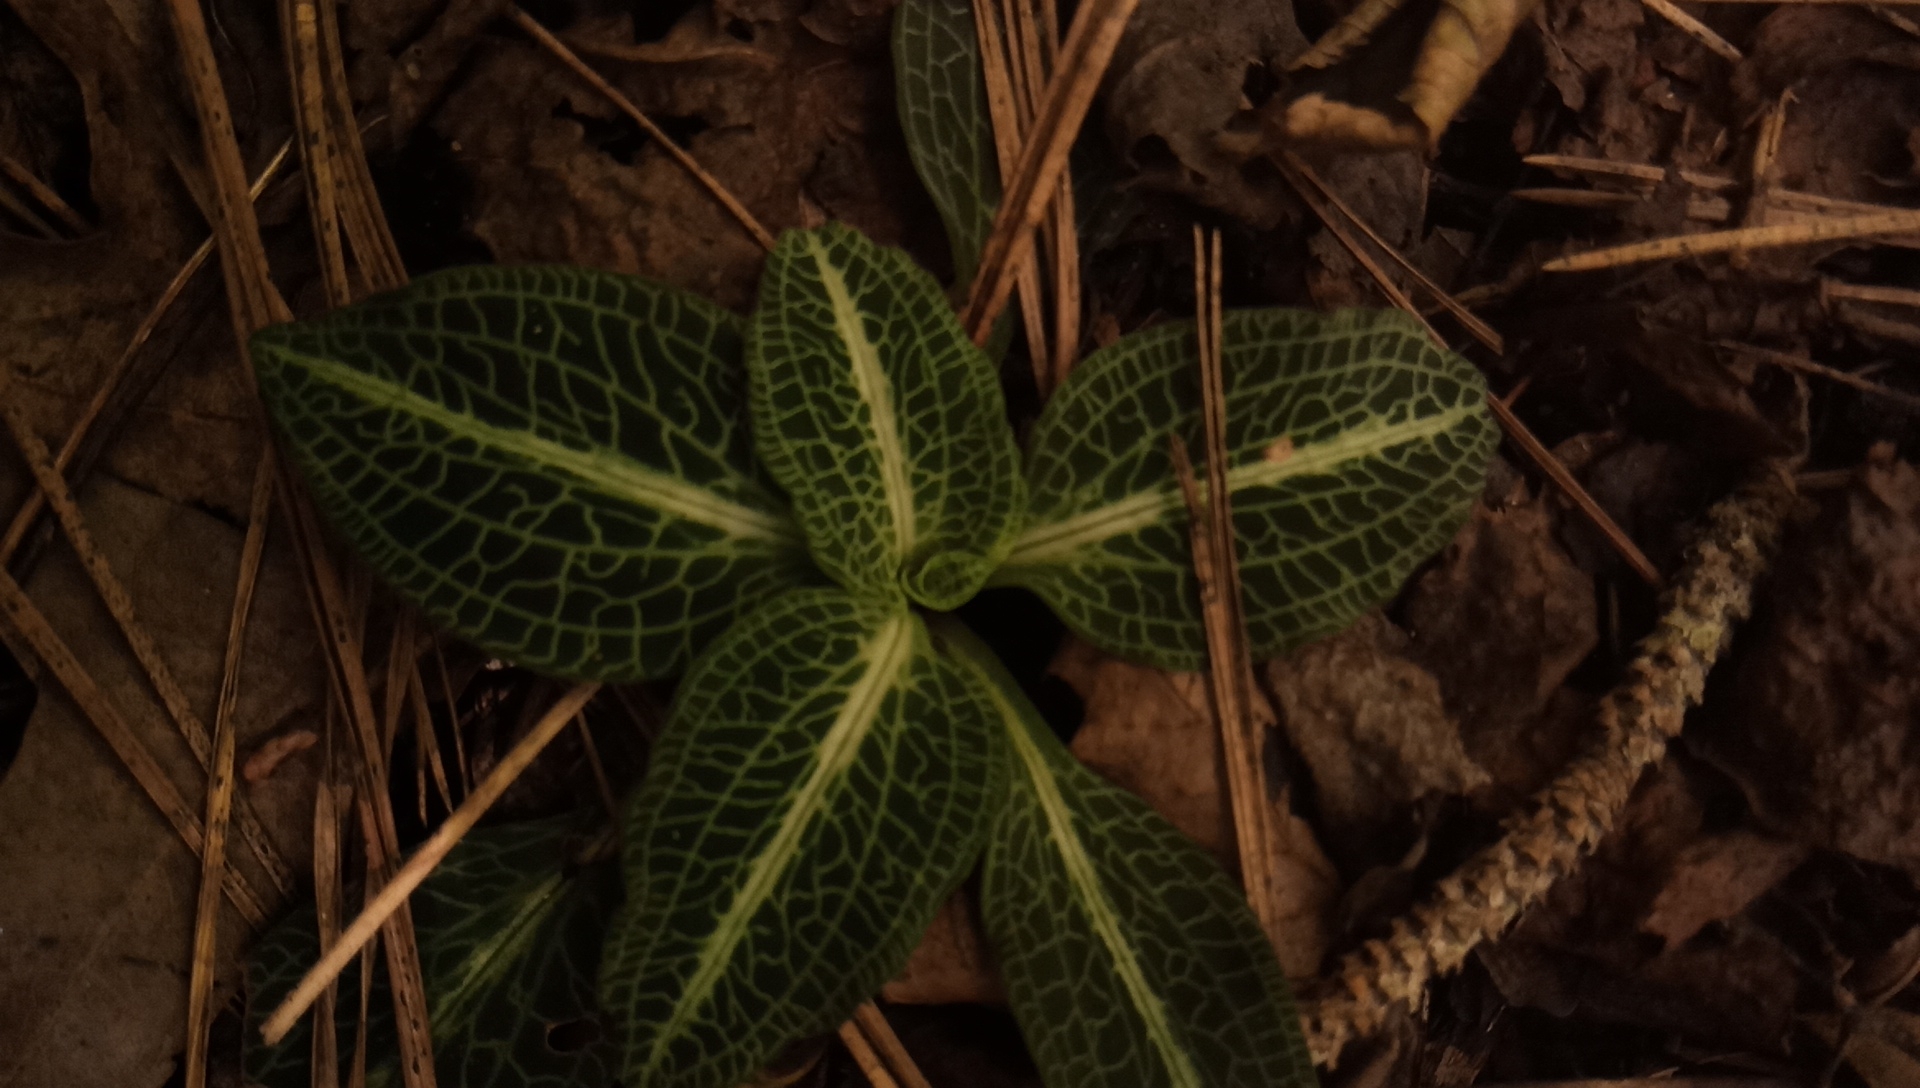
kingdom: Plantae
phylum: Tracheophyta
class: Liliopsida
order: Asparagales
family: Orchidaceae
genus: Goodyera
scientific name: Goodyera pubescens
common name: Downy rattlesnake-plantain
